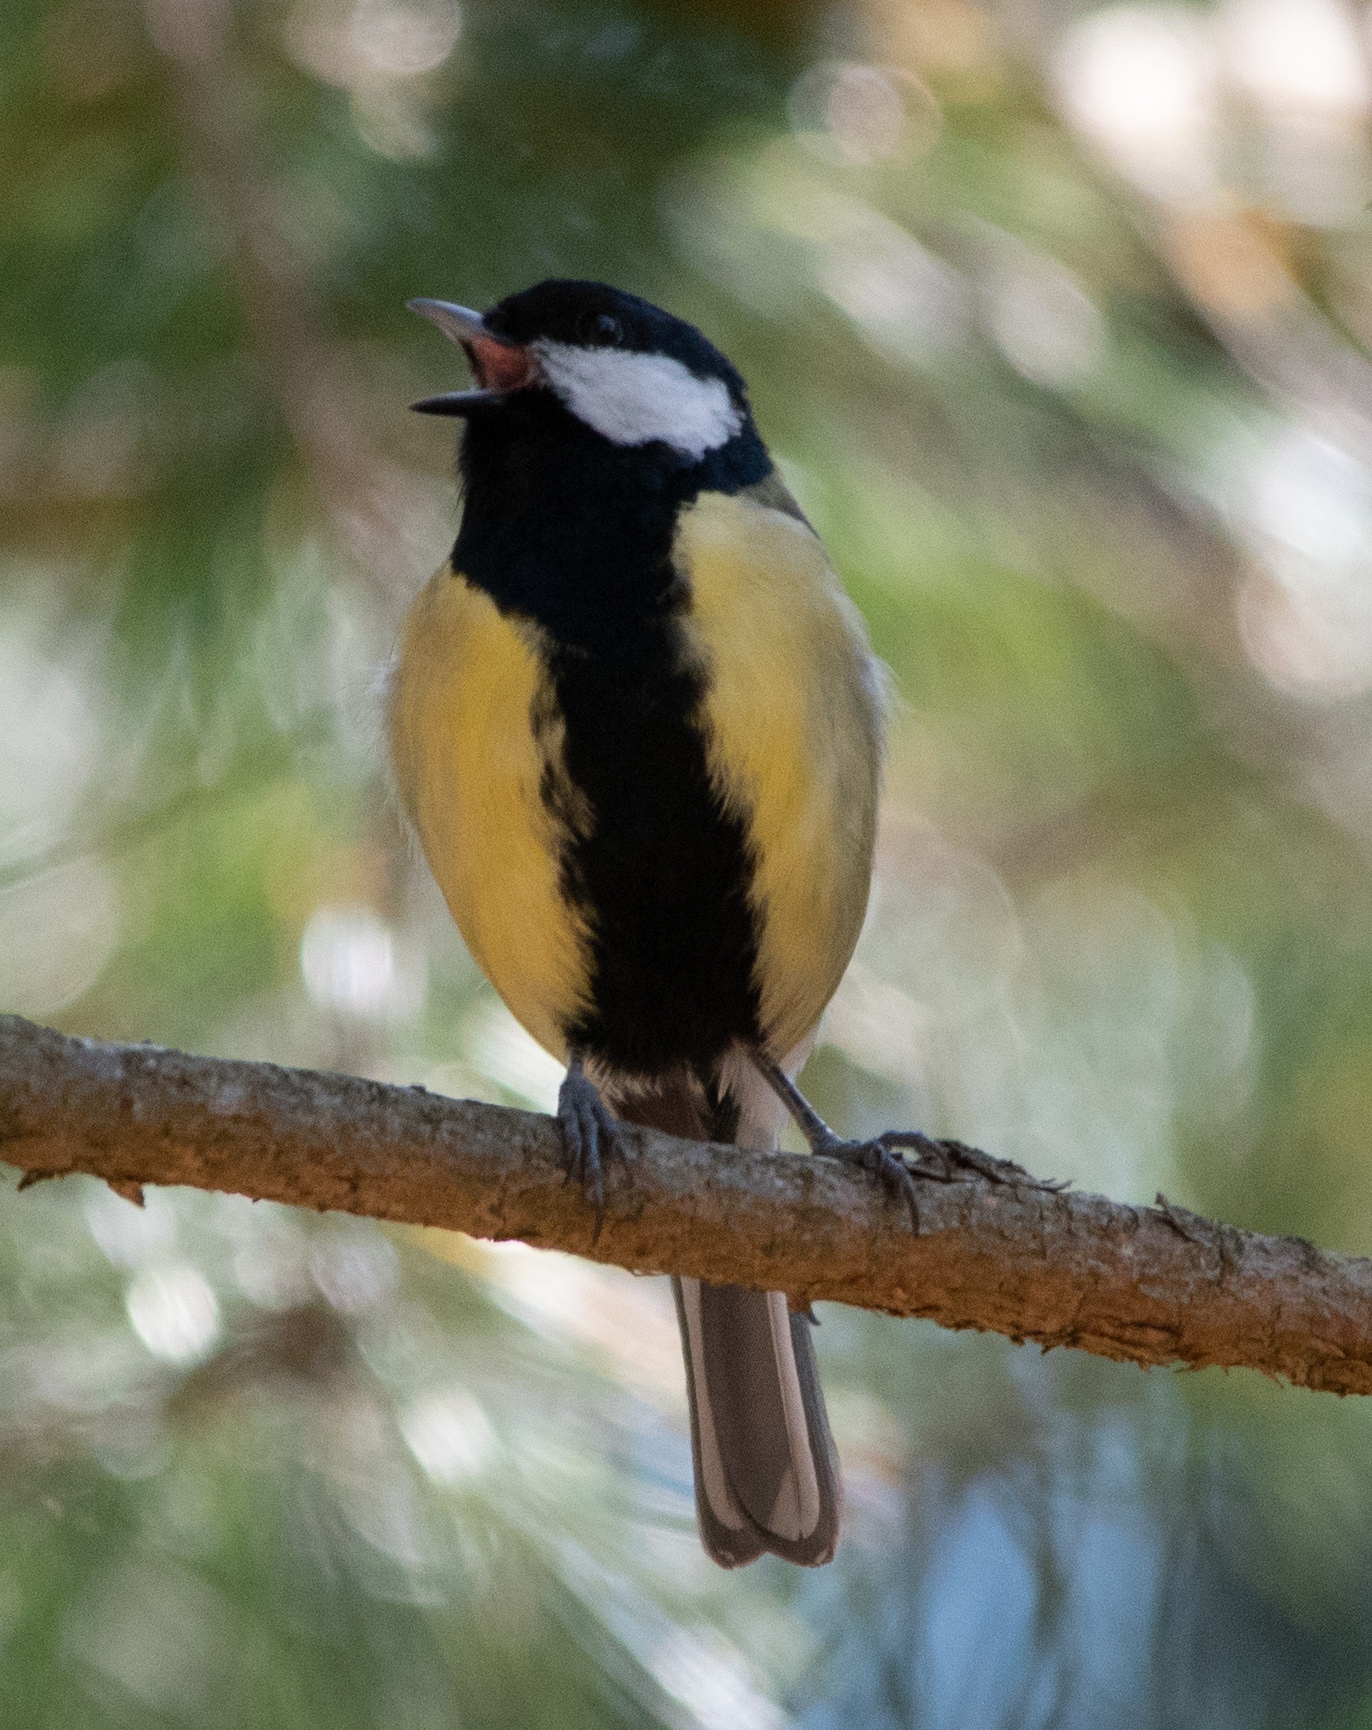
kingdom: Animalia
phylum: Chordata
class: Aves
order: Passeriformes
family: Paridae
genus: Parus
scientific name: Parus major
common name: Great tit
